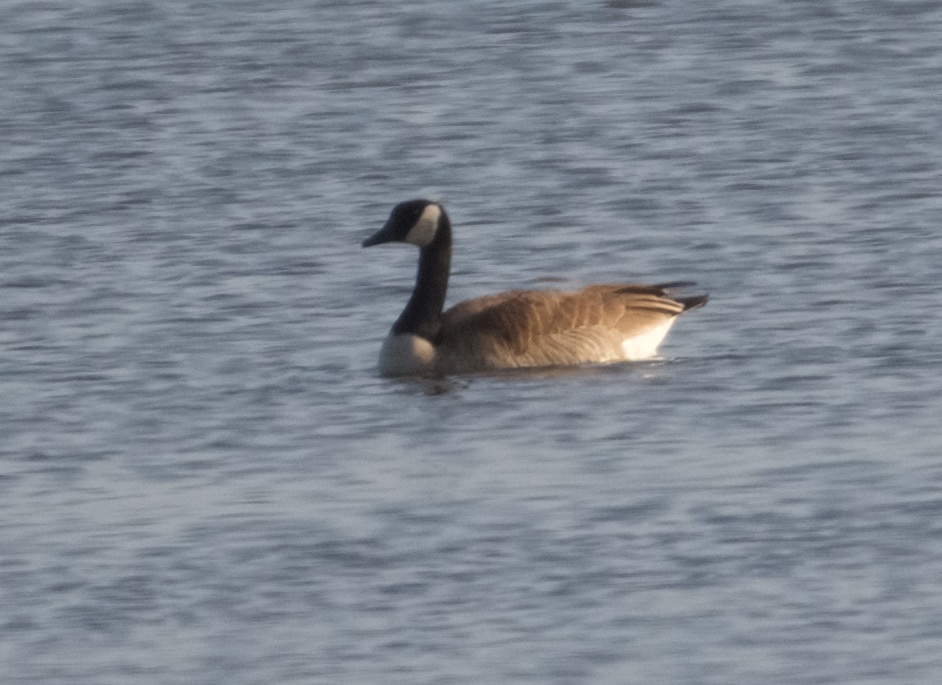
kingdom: Animalia
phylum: Chordata
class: Aves
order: Anseriformes
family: Anatidae
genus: Branta
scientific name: Branta canadensis
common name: Canada goose
